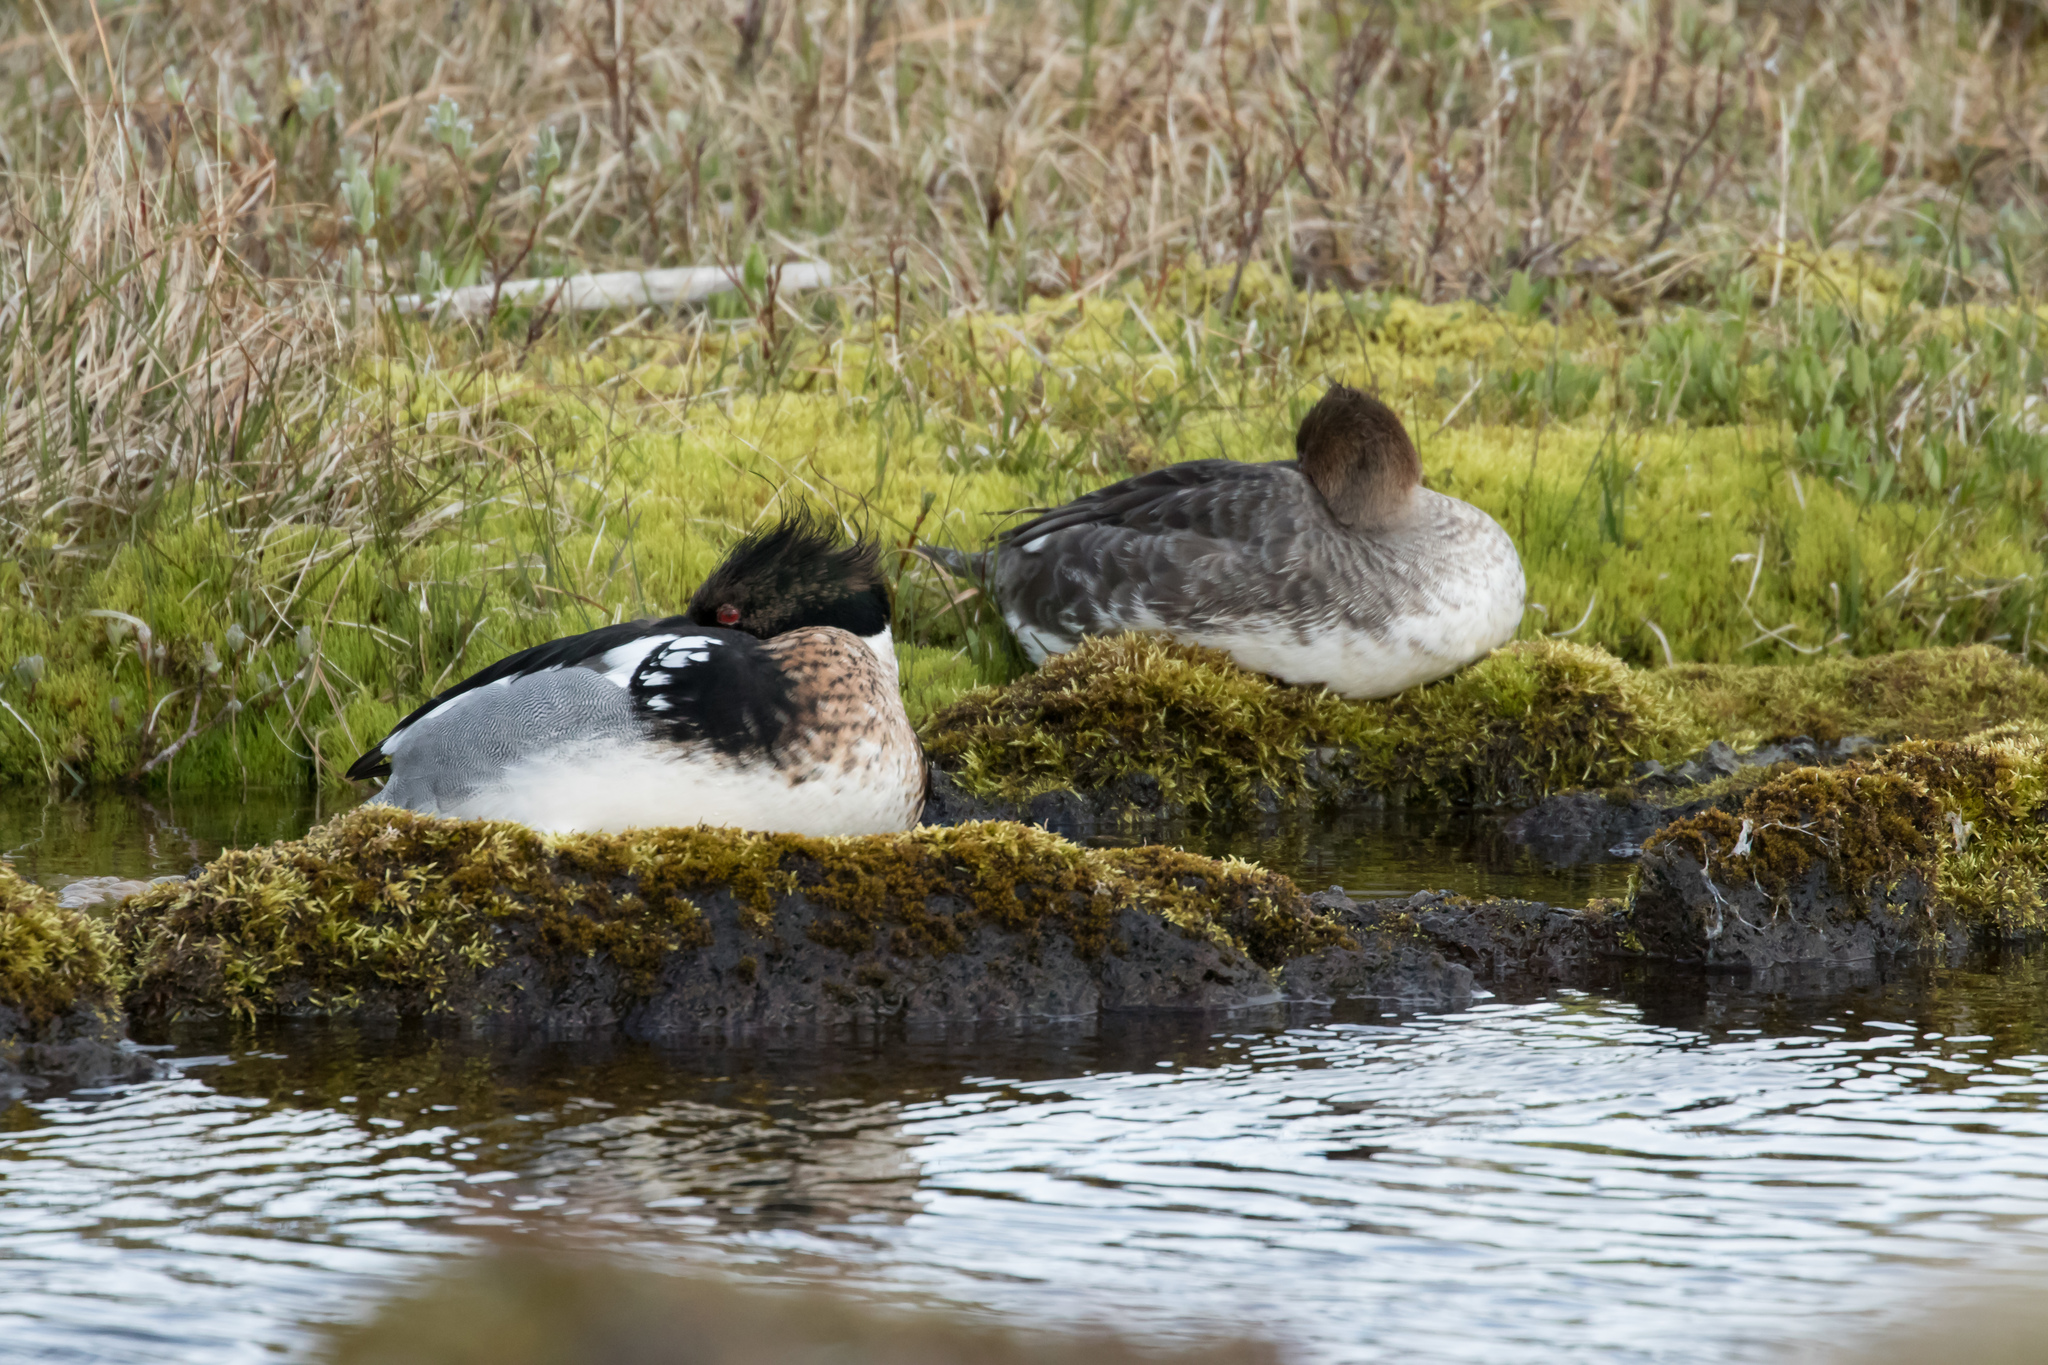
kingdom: Animalia
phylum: Chordata
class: Aves
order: Anseriformes
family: Anatidae
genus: Mergus
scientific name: Mergus serrator
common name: Red-breasted merganser
